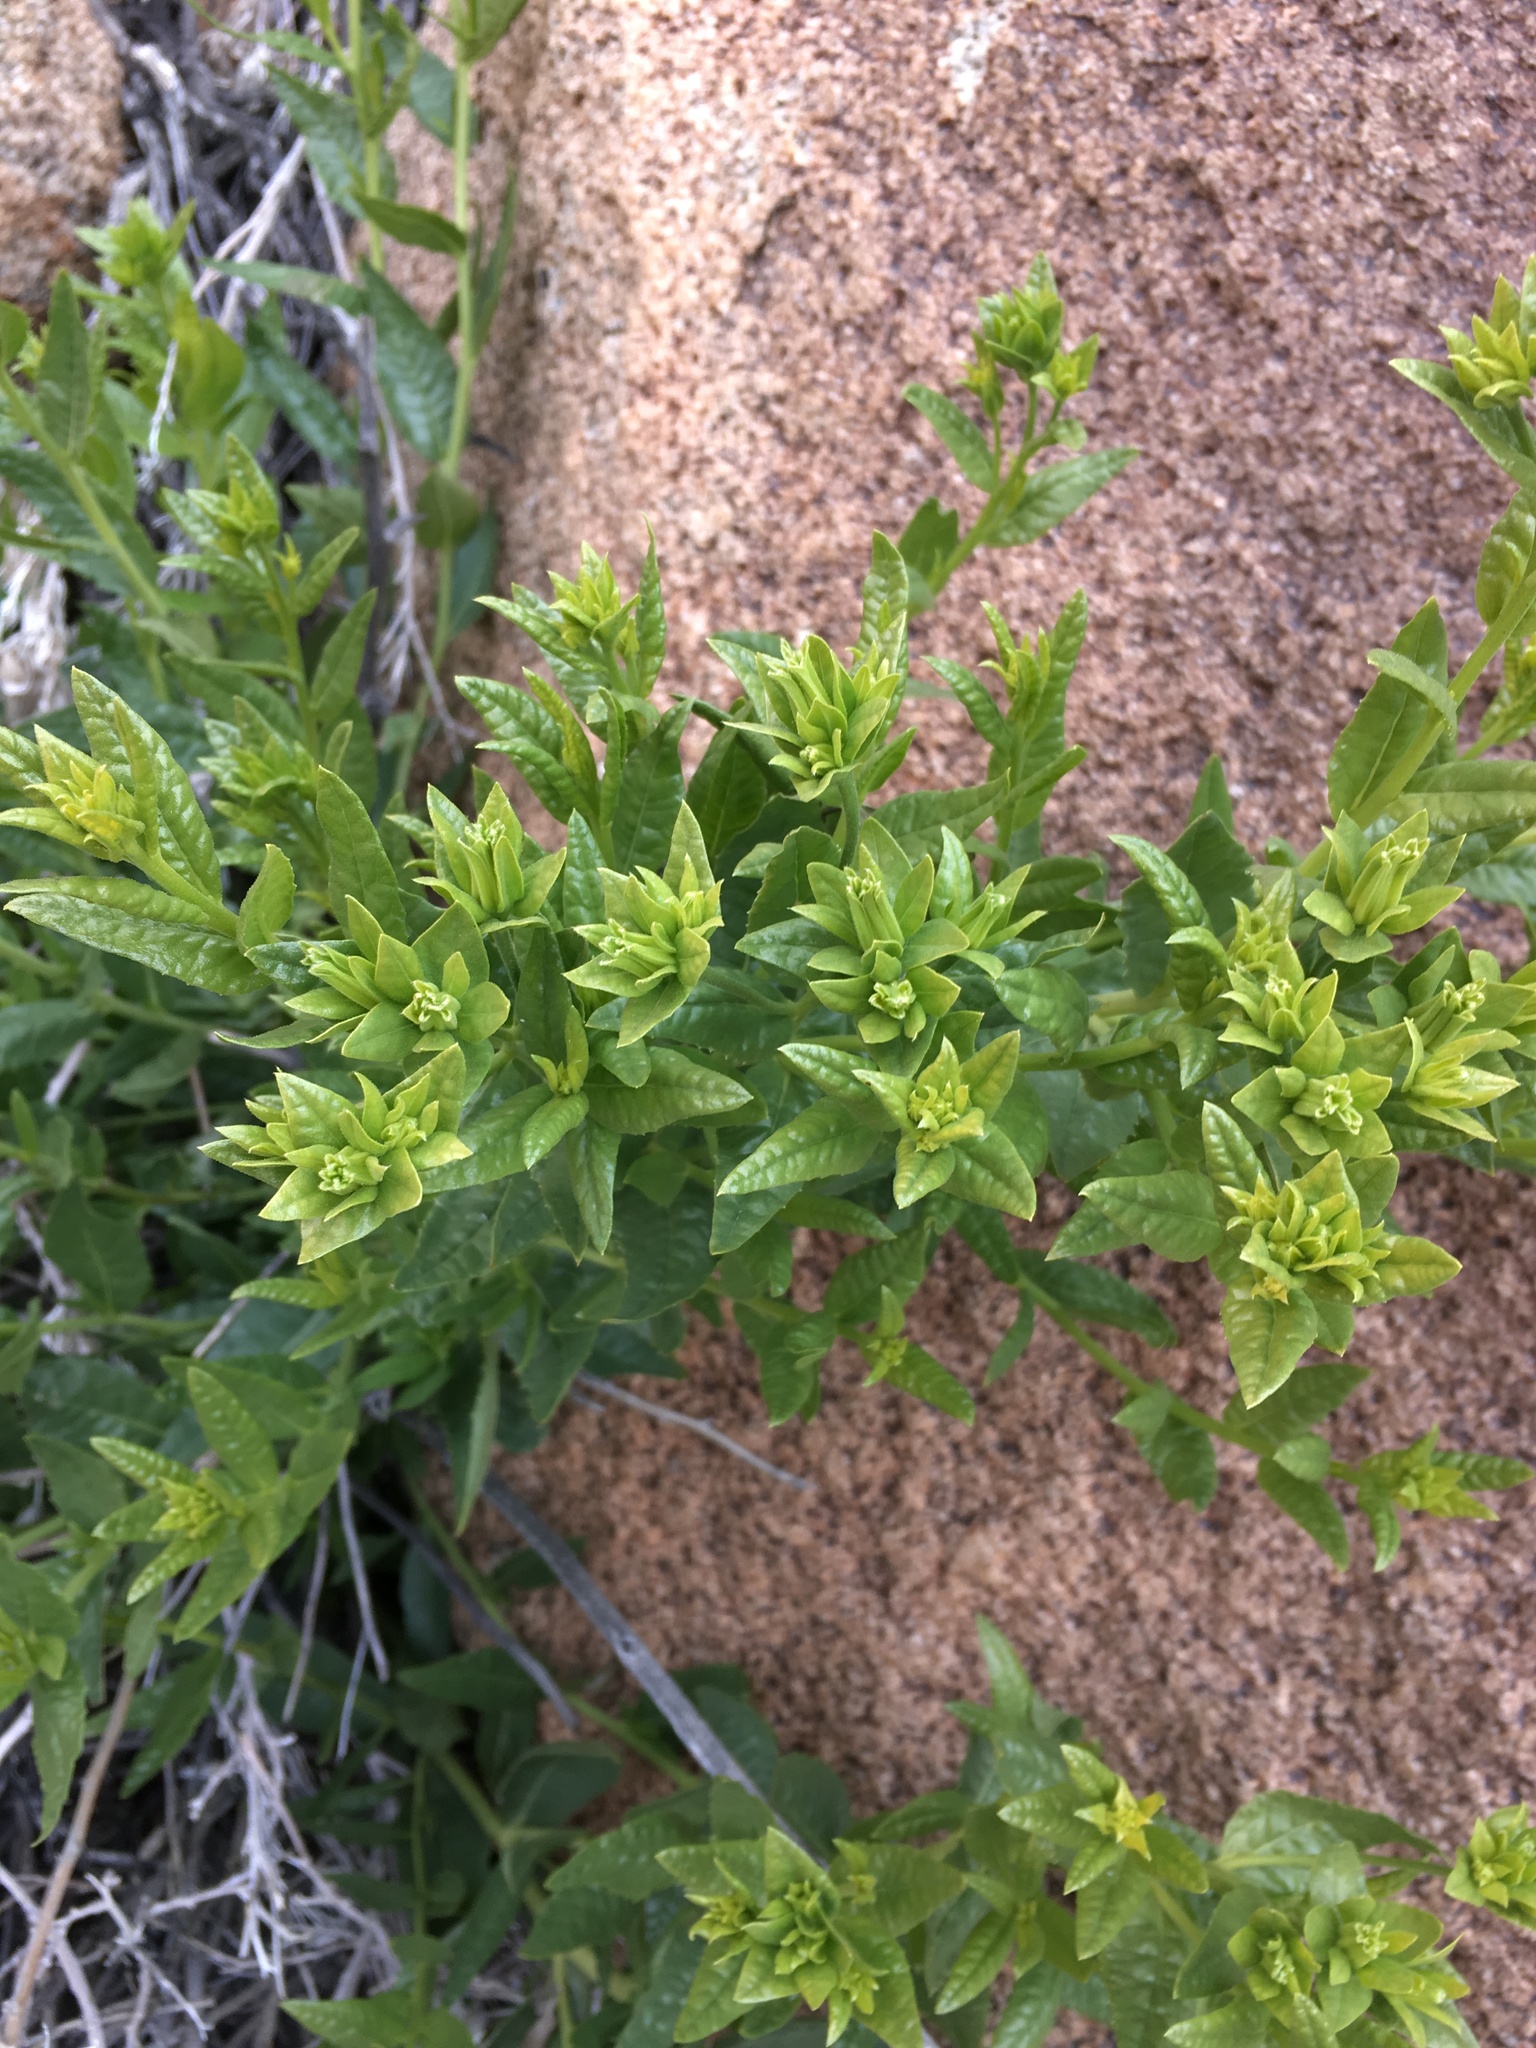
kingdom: Plantae
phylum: Tracheophyta
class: Magnoliopsida
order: Asterales
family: Asteraceae
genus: Trixis
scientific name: Trixis californica
